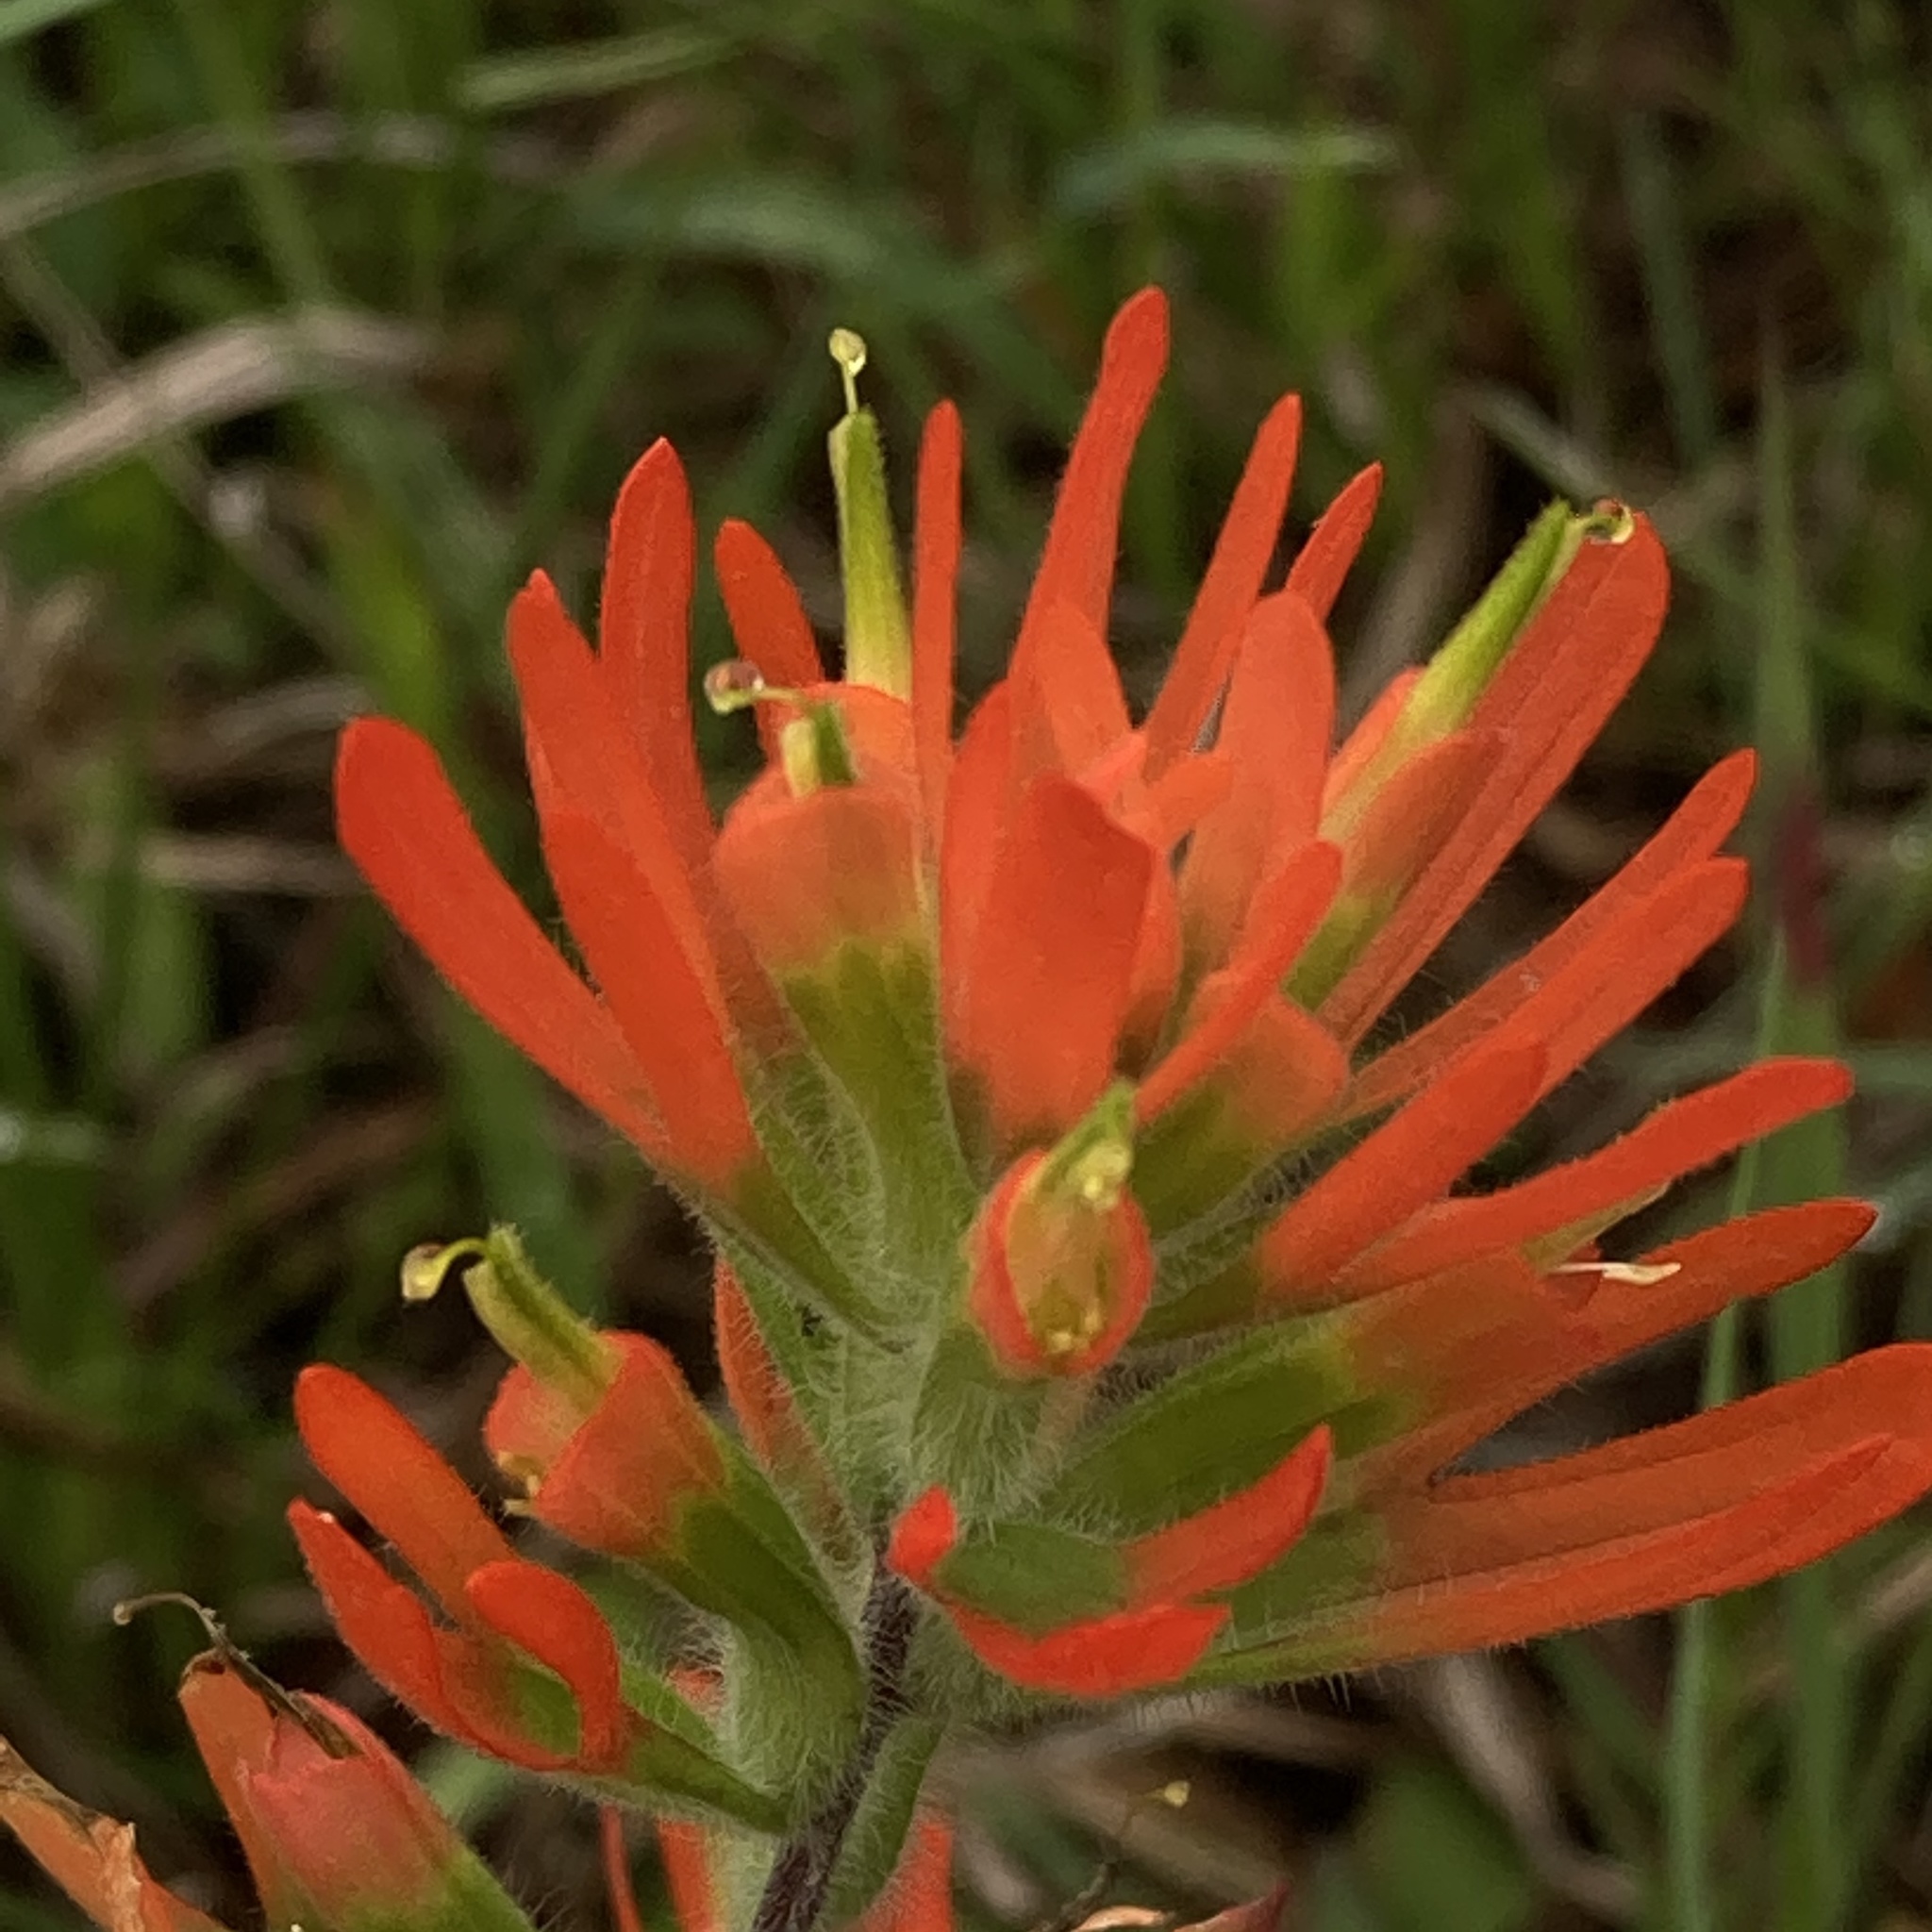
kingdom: Plantae
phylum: Tracheophyta
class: Magnoliopsida
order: Lamiales
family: Orobanchaceae
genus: Castilleja
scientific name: Castilleja coccinea
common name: Scarlet paintbrush
